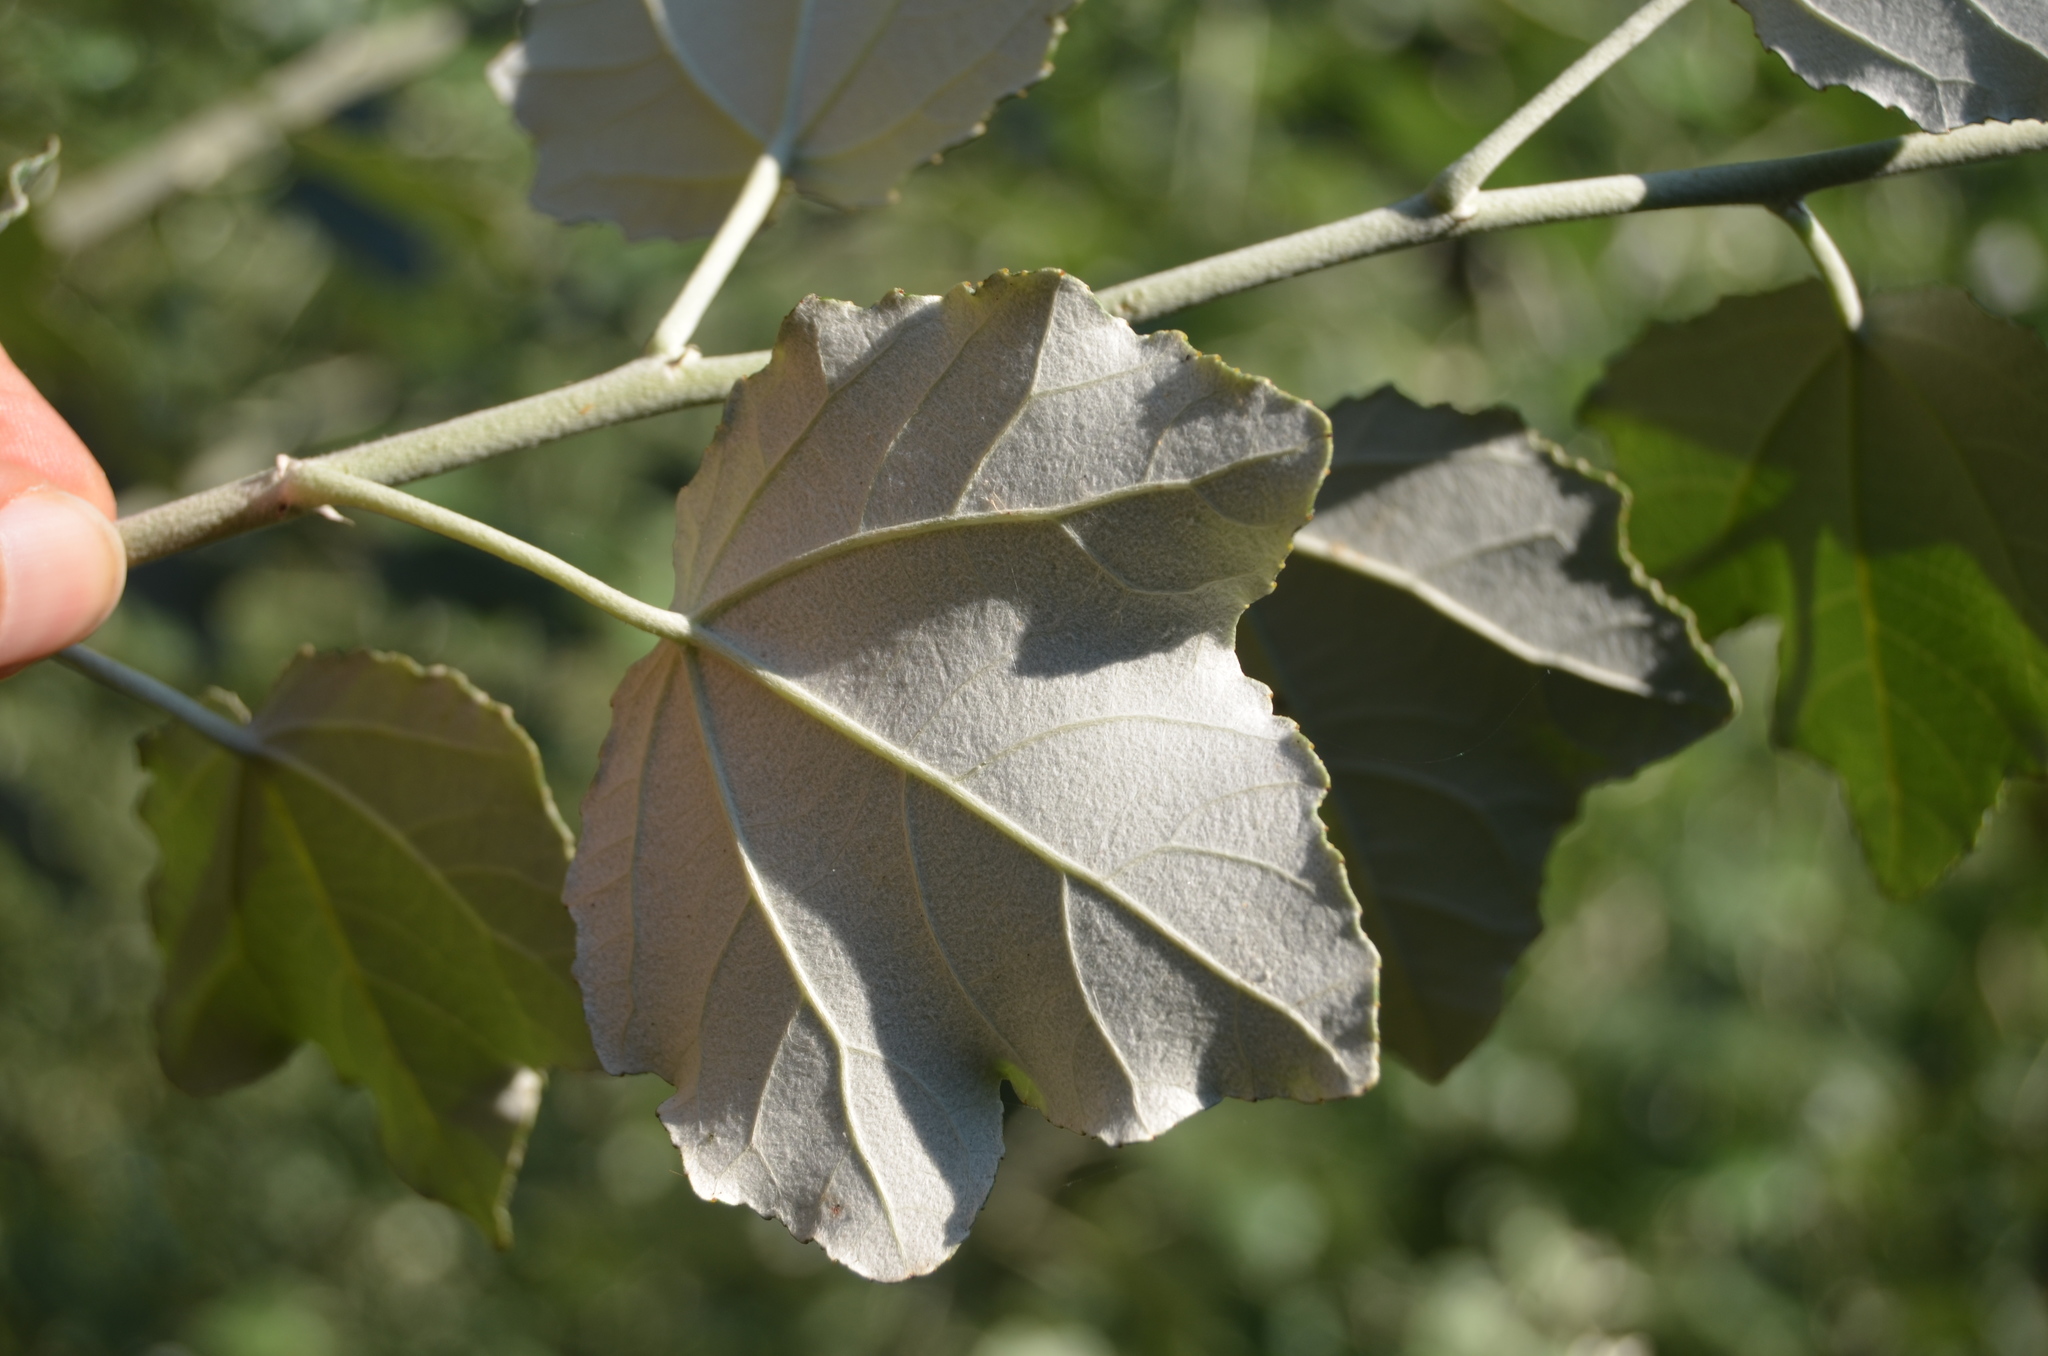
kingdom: Plantae
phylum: Tracheophyta
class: Magnoliopsida
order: Malpighiales
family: Salicaceae
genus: Populus
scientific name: Populus alba
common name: White poplar
